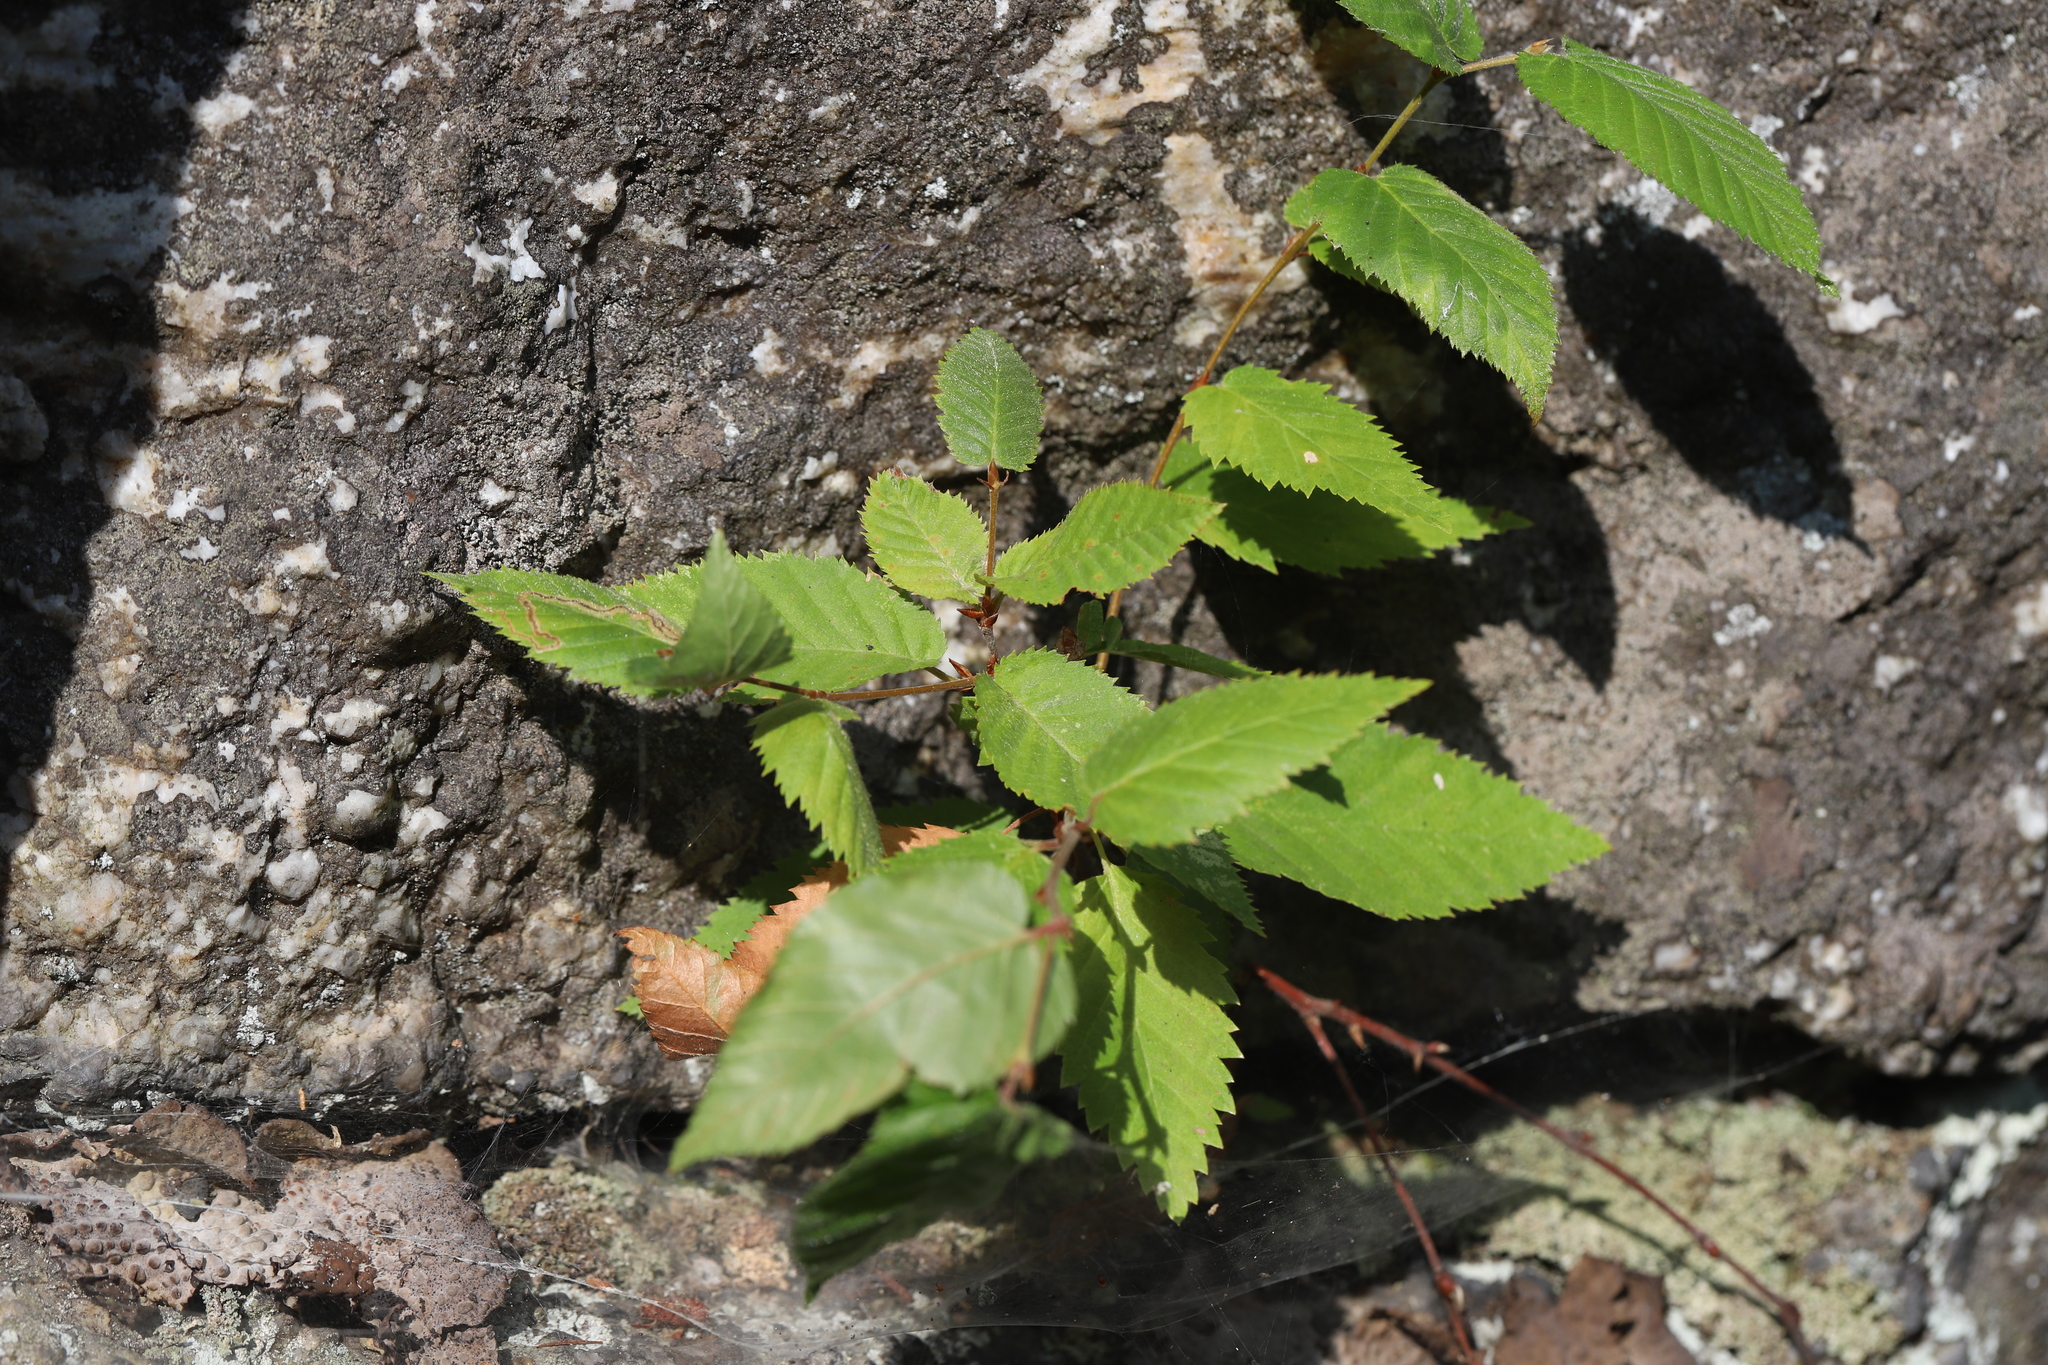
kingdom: Plantae
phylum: Tracheophyta
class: Magnoliopsida
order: Fagales
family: Betulaceae
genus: Betula
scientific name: Betula alleghaniensis
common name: Yellow birch
